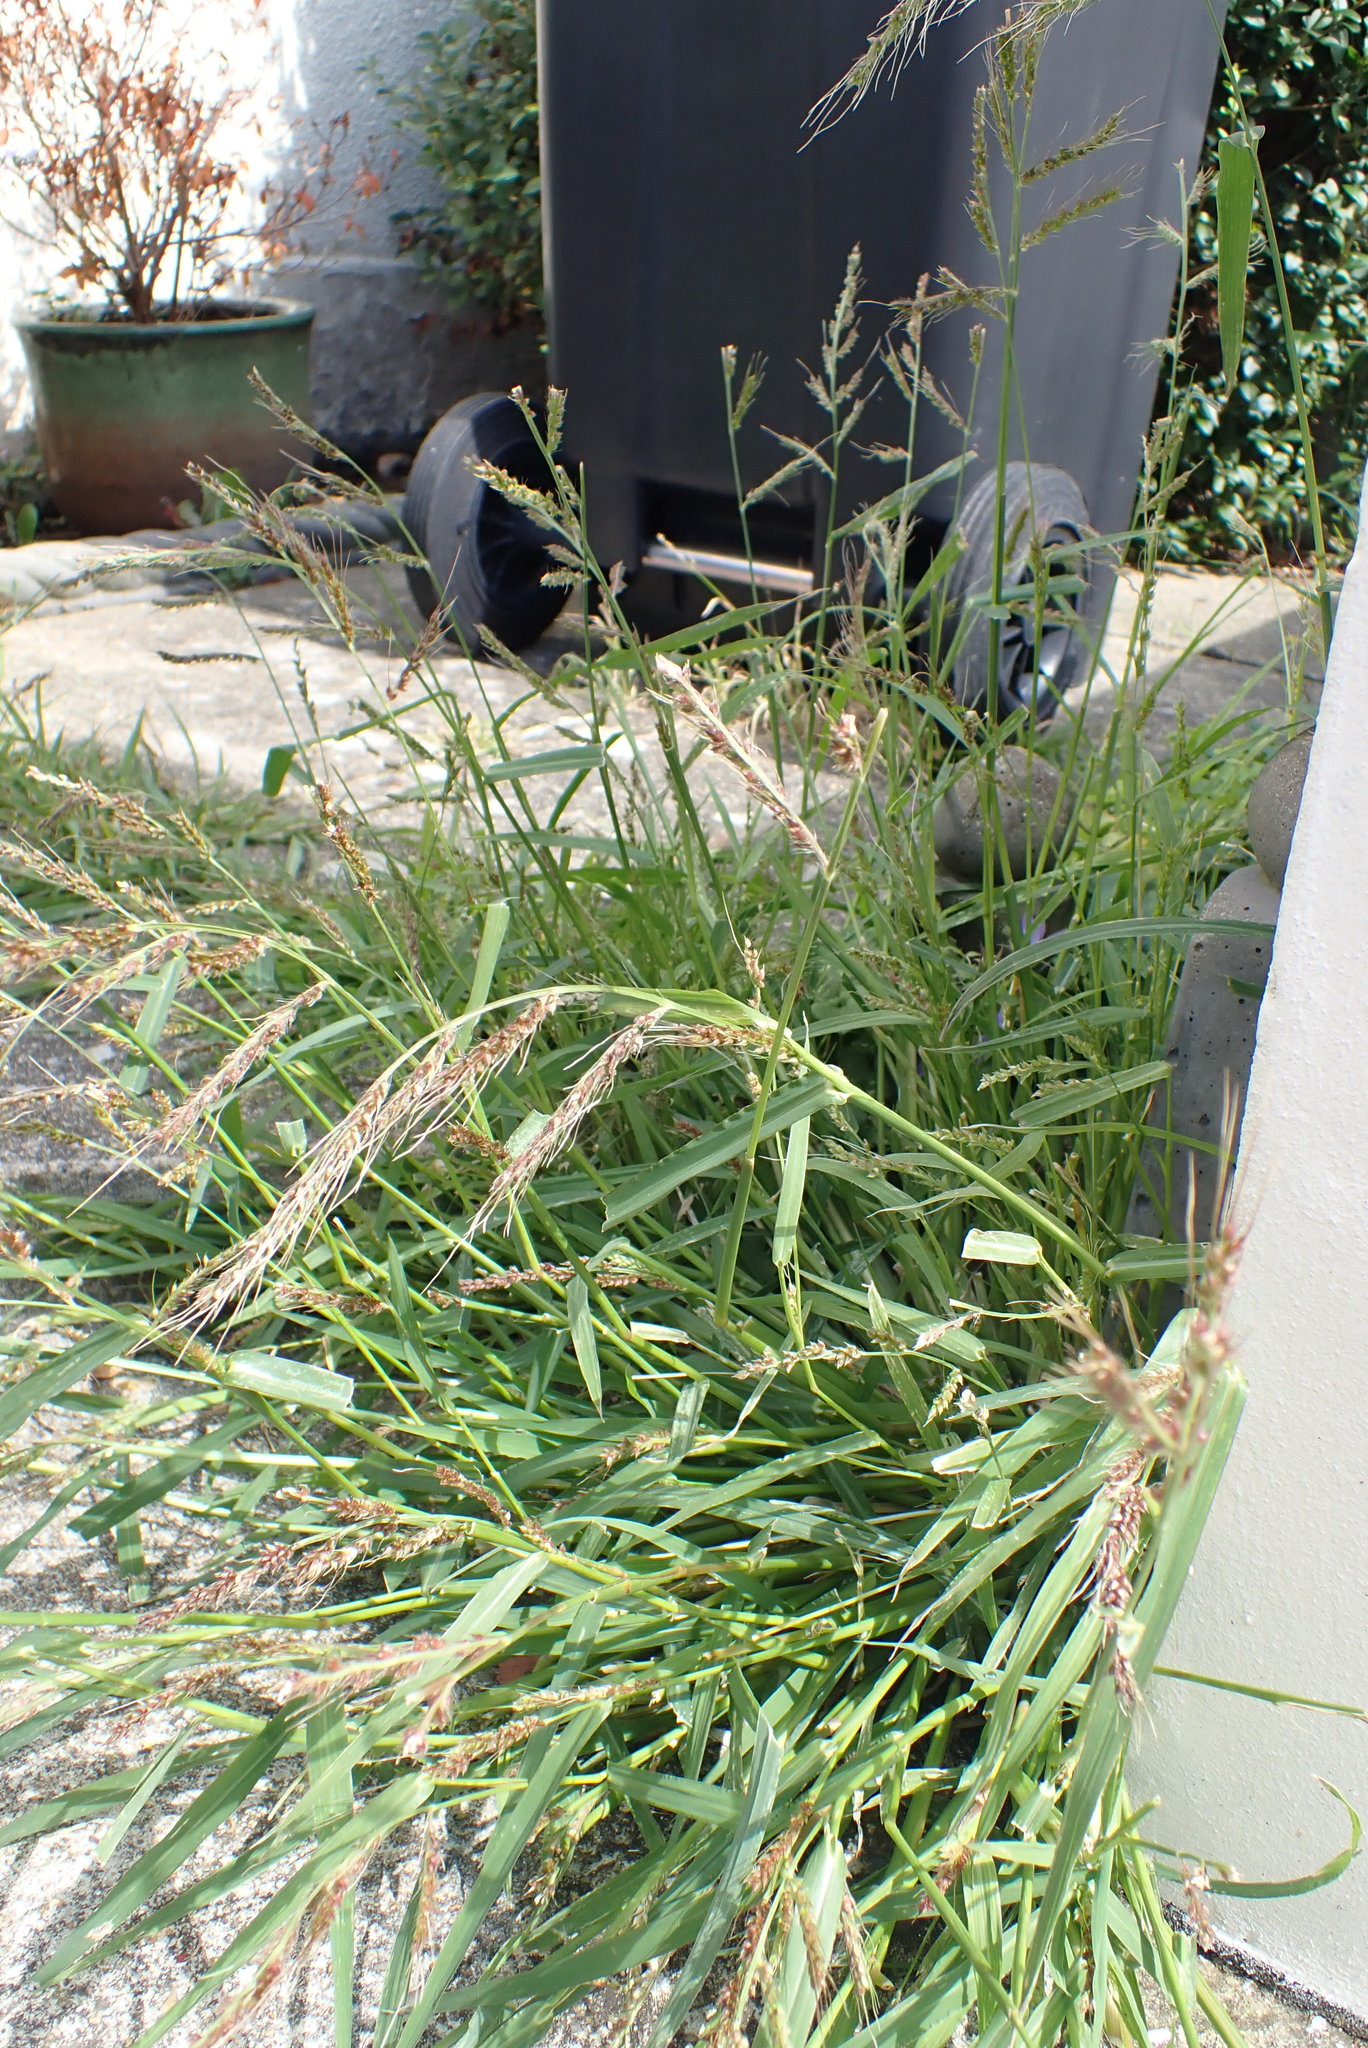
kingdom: Plantae
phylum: Tracheophyta
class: Liliopsida
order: Poales
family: Poaceae
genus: Echinochloa
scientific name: Echinochloa crus-galli
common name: Cockspur
